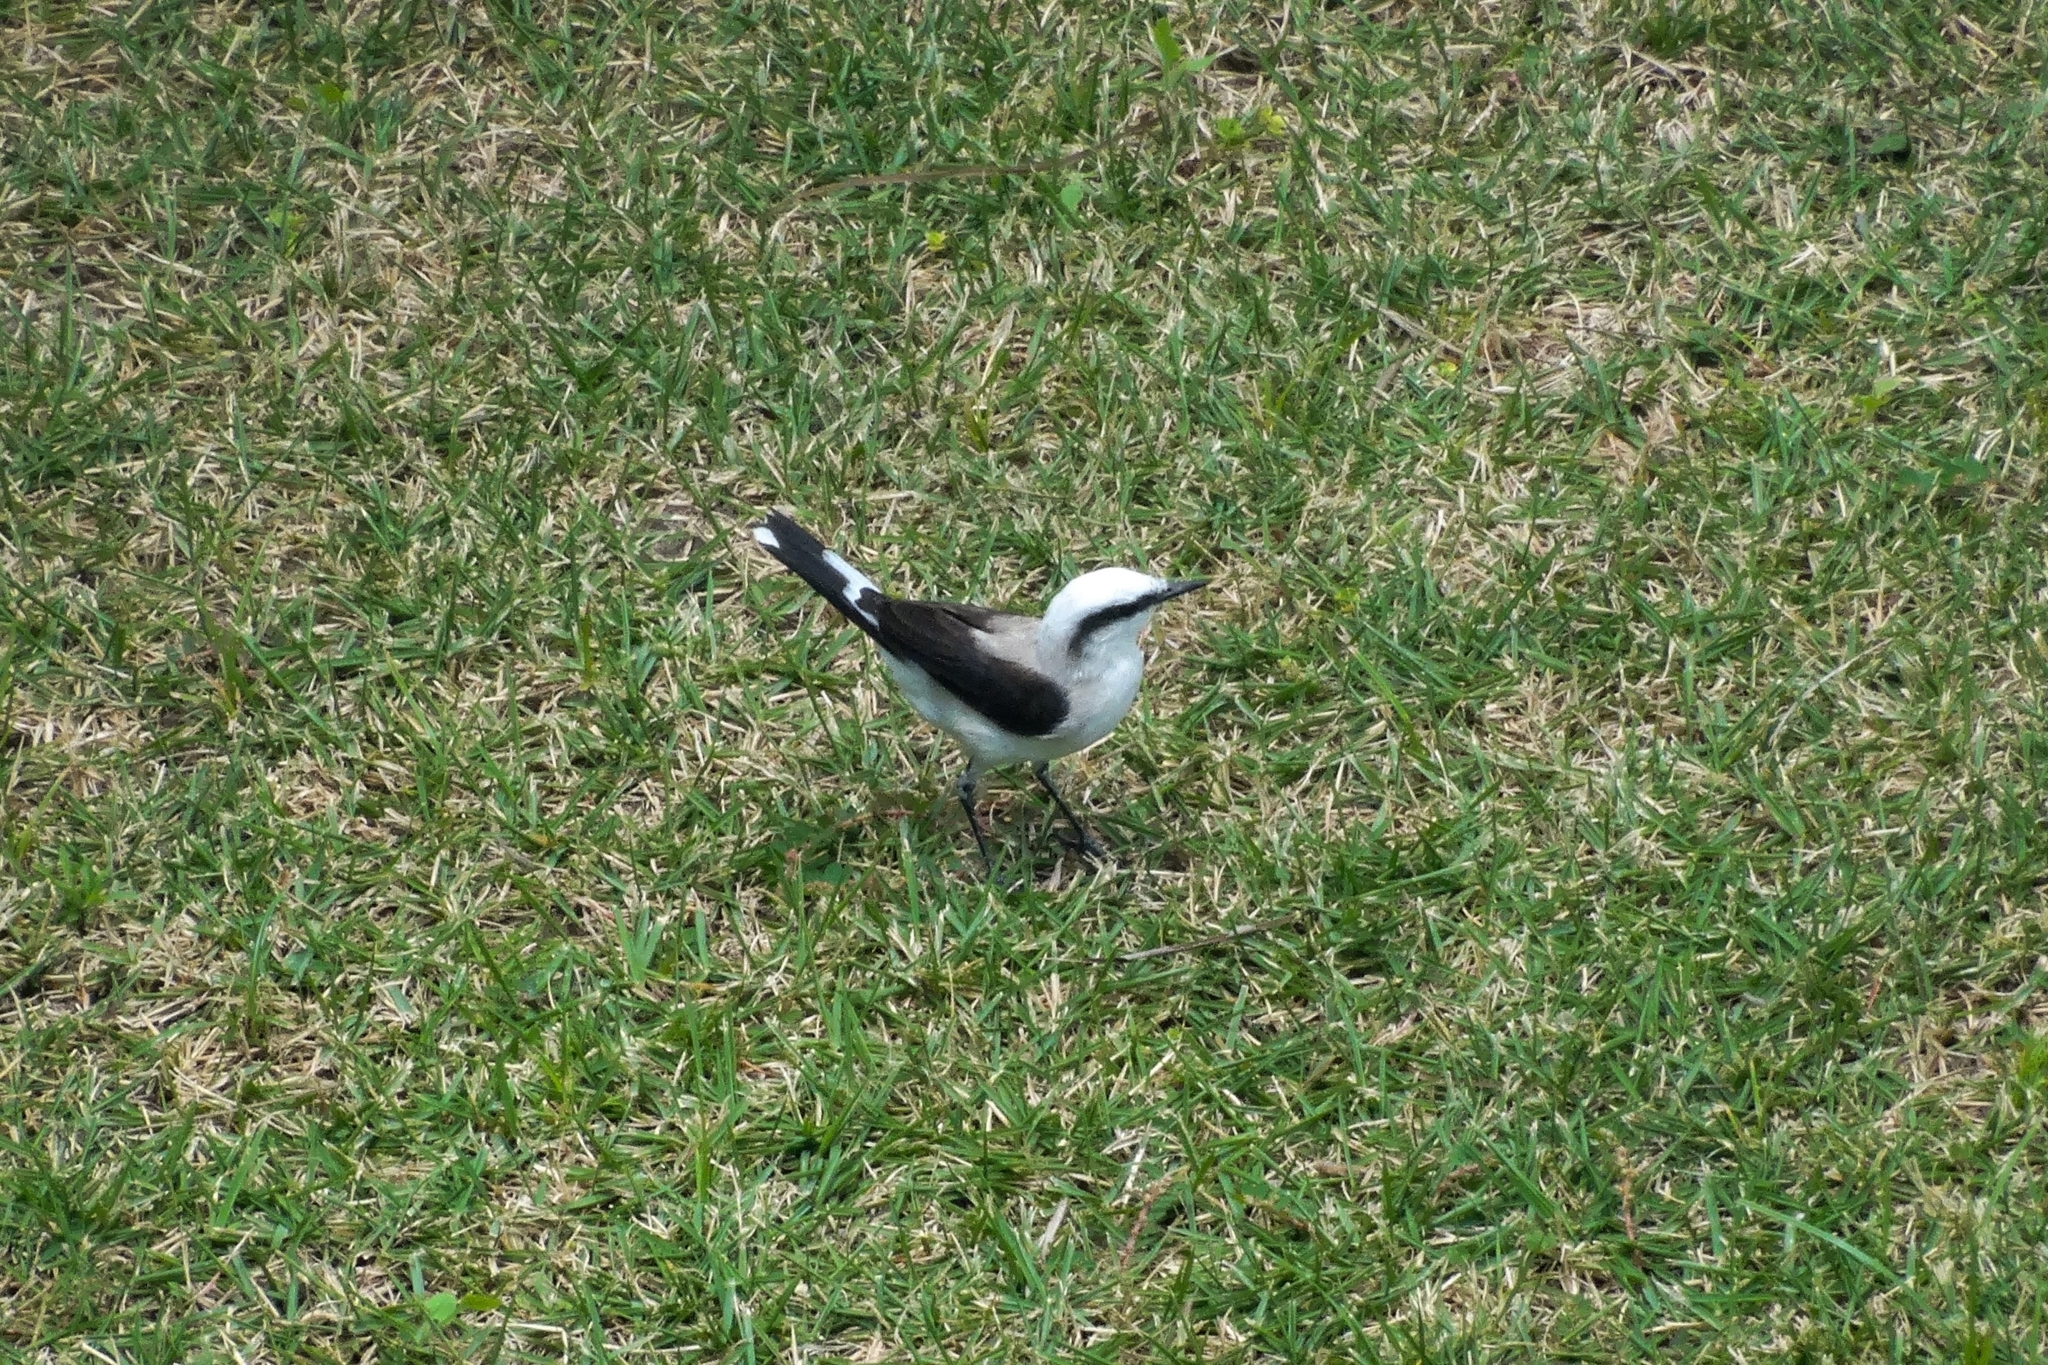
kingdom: Animalia
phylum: Chordata
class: Aves
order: Passeriformes
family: Tyrannidae
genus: Fluvicola
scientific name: Fluvicola nengeta
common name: Masked water tyrant
